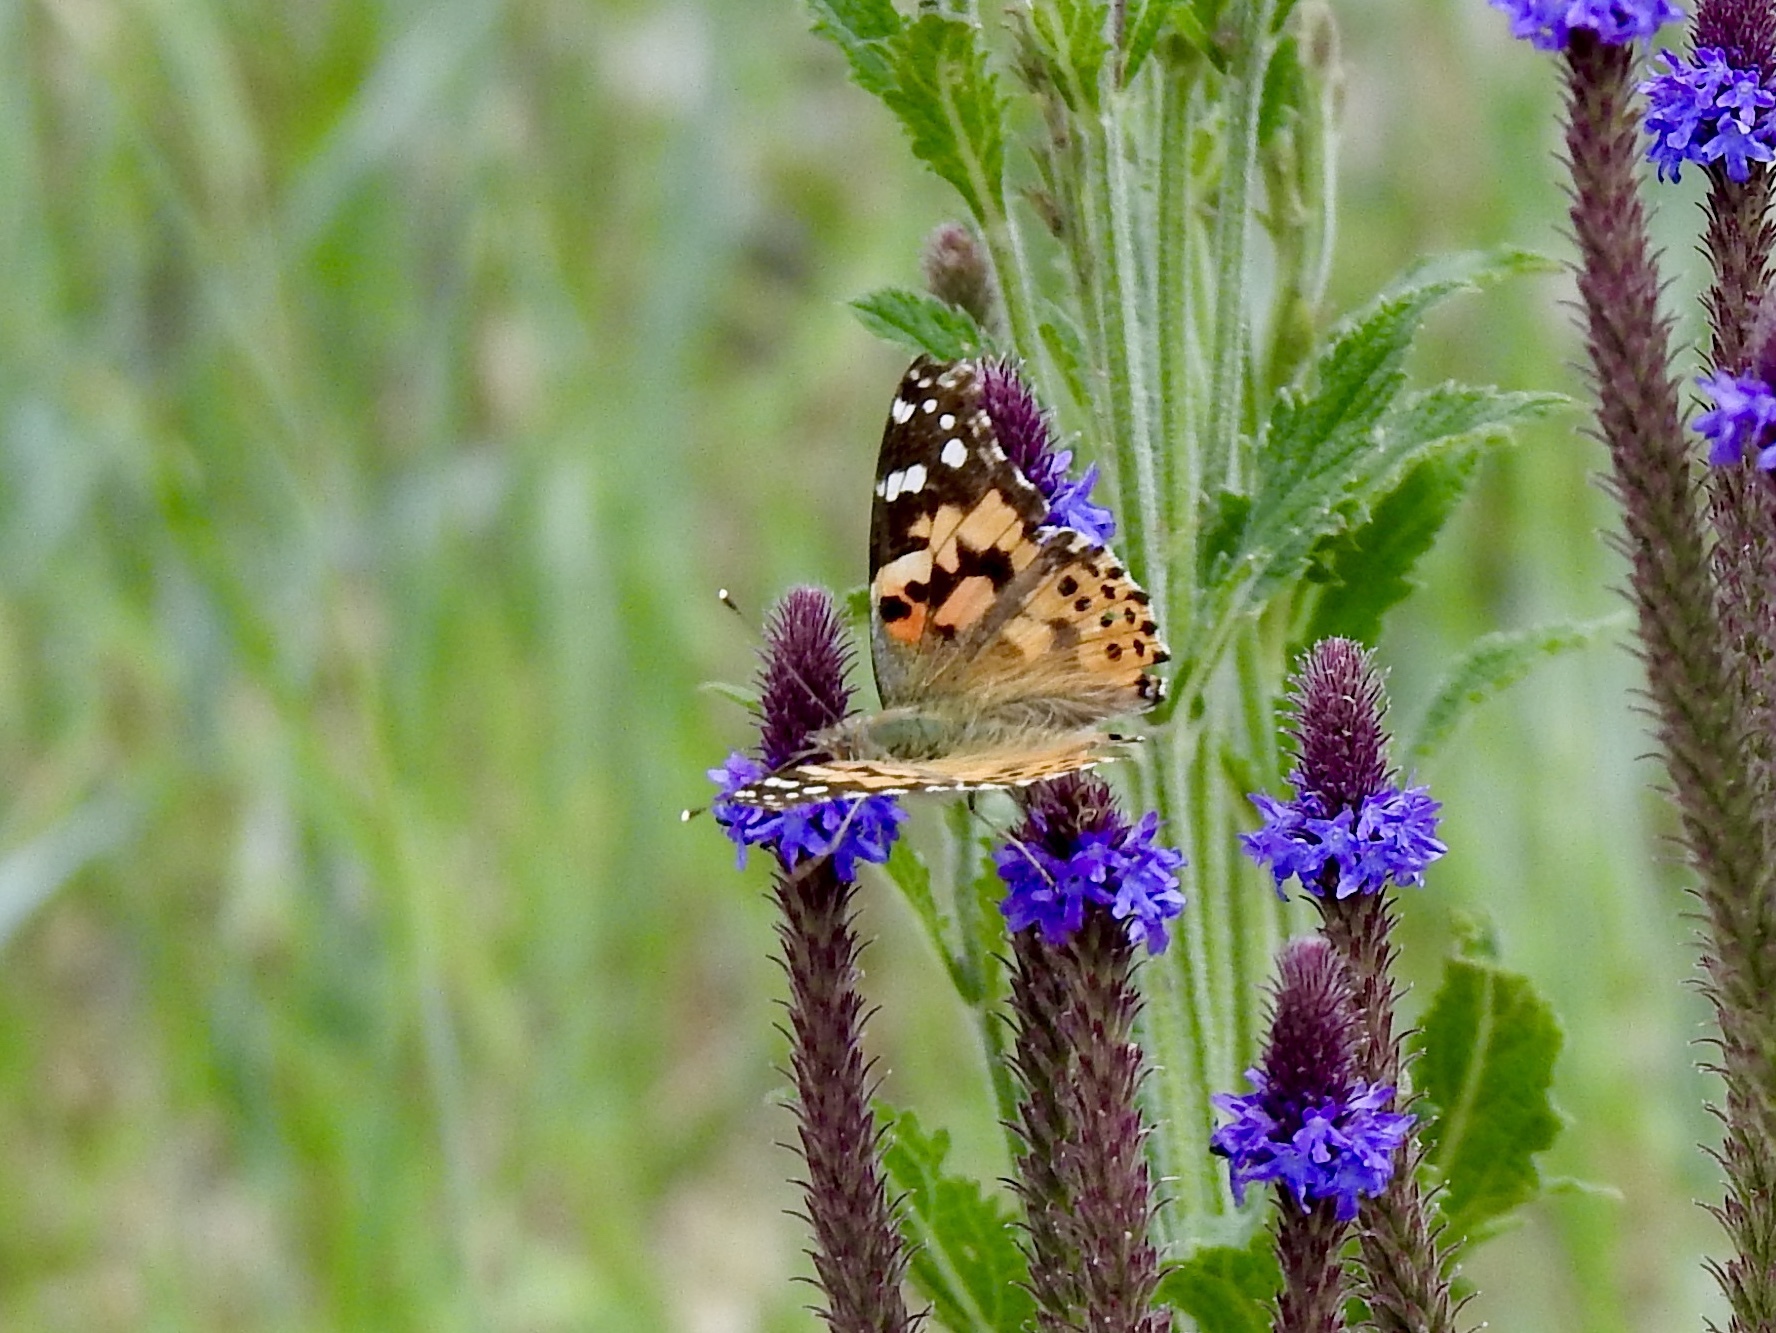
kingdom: Animalia
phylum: Arthropoda
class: Insecta
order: Lepidoptera
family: Nymphalidae
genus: Vanessa
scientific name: Vanessa cardui
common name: Painted lady
